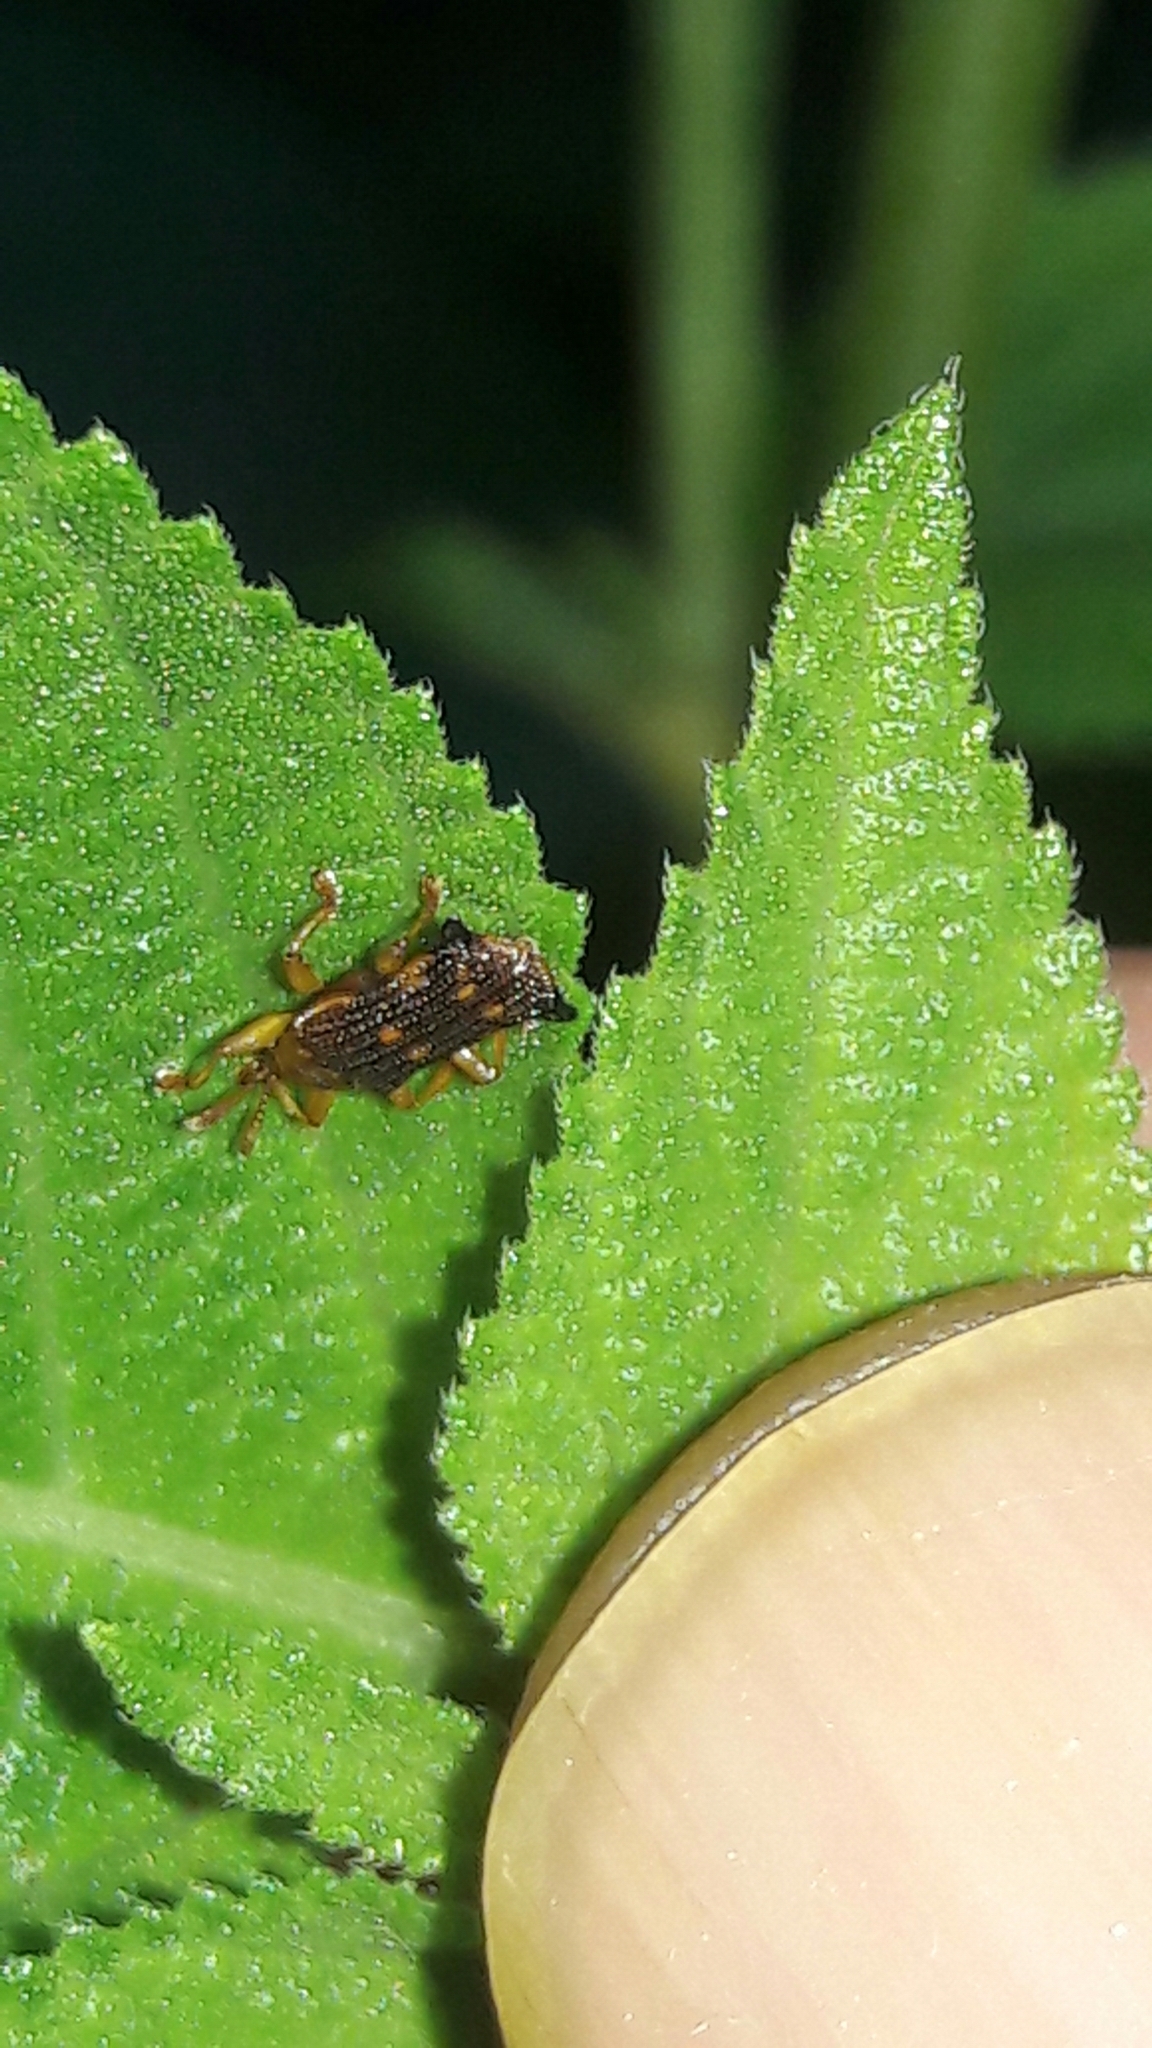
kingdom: Animalia
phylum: Arthropoda
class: Insecta
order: Coleoptera
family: Chrysomelidae
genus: Uroplata
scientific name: Uroplata fulvopustulata
